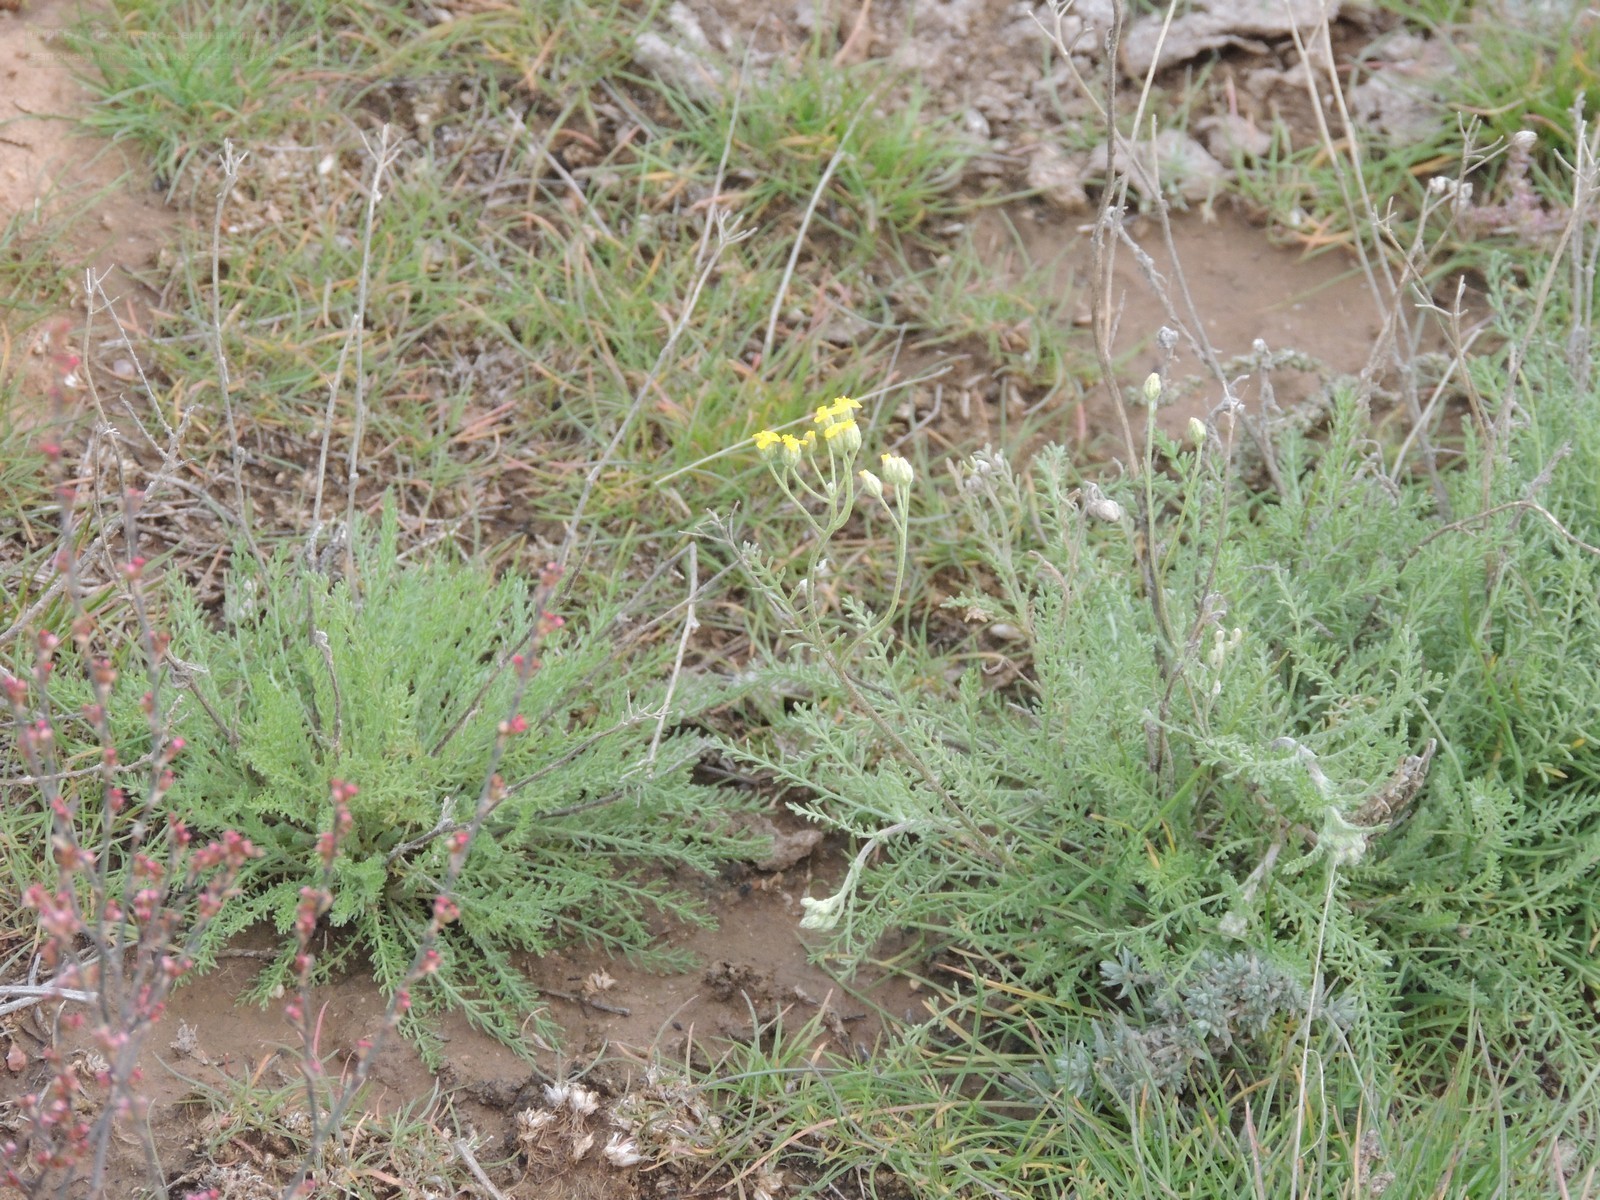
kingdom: Plantae
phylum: Tracheophyta
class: Magnoliopsida
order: Asterales
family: Asteraceae
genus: Achillea
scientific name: Achillea leptophylla
